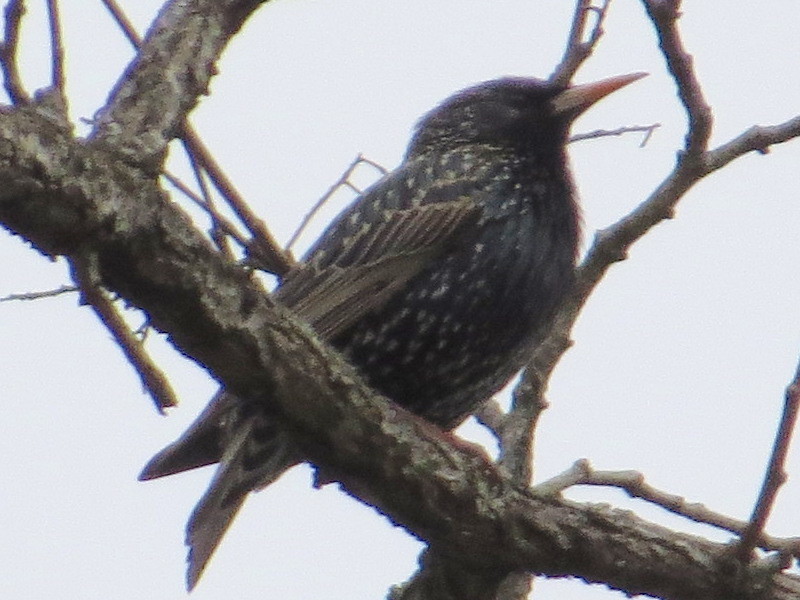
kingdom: Animalia
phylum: Chordata
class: Aves
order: Passeriformes
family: Sturnidae
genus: Sturnus
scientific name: Sturnus vulgaris
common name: Common starling
